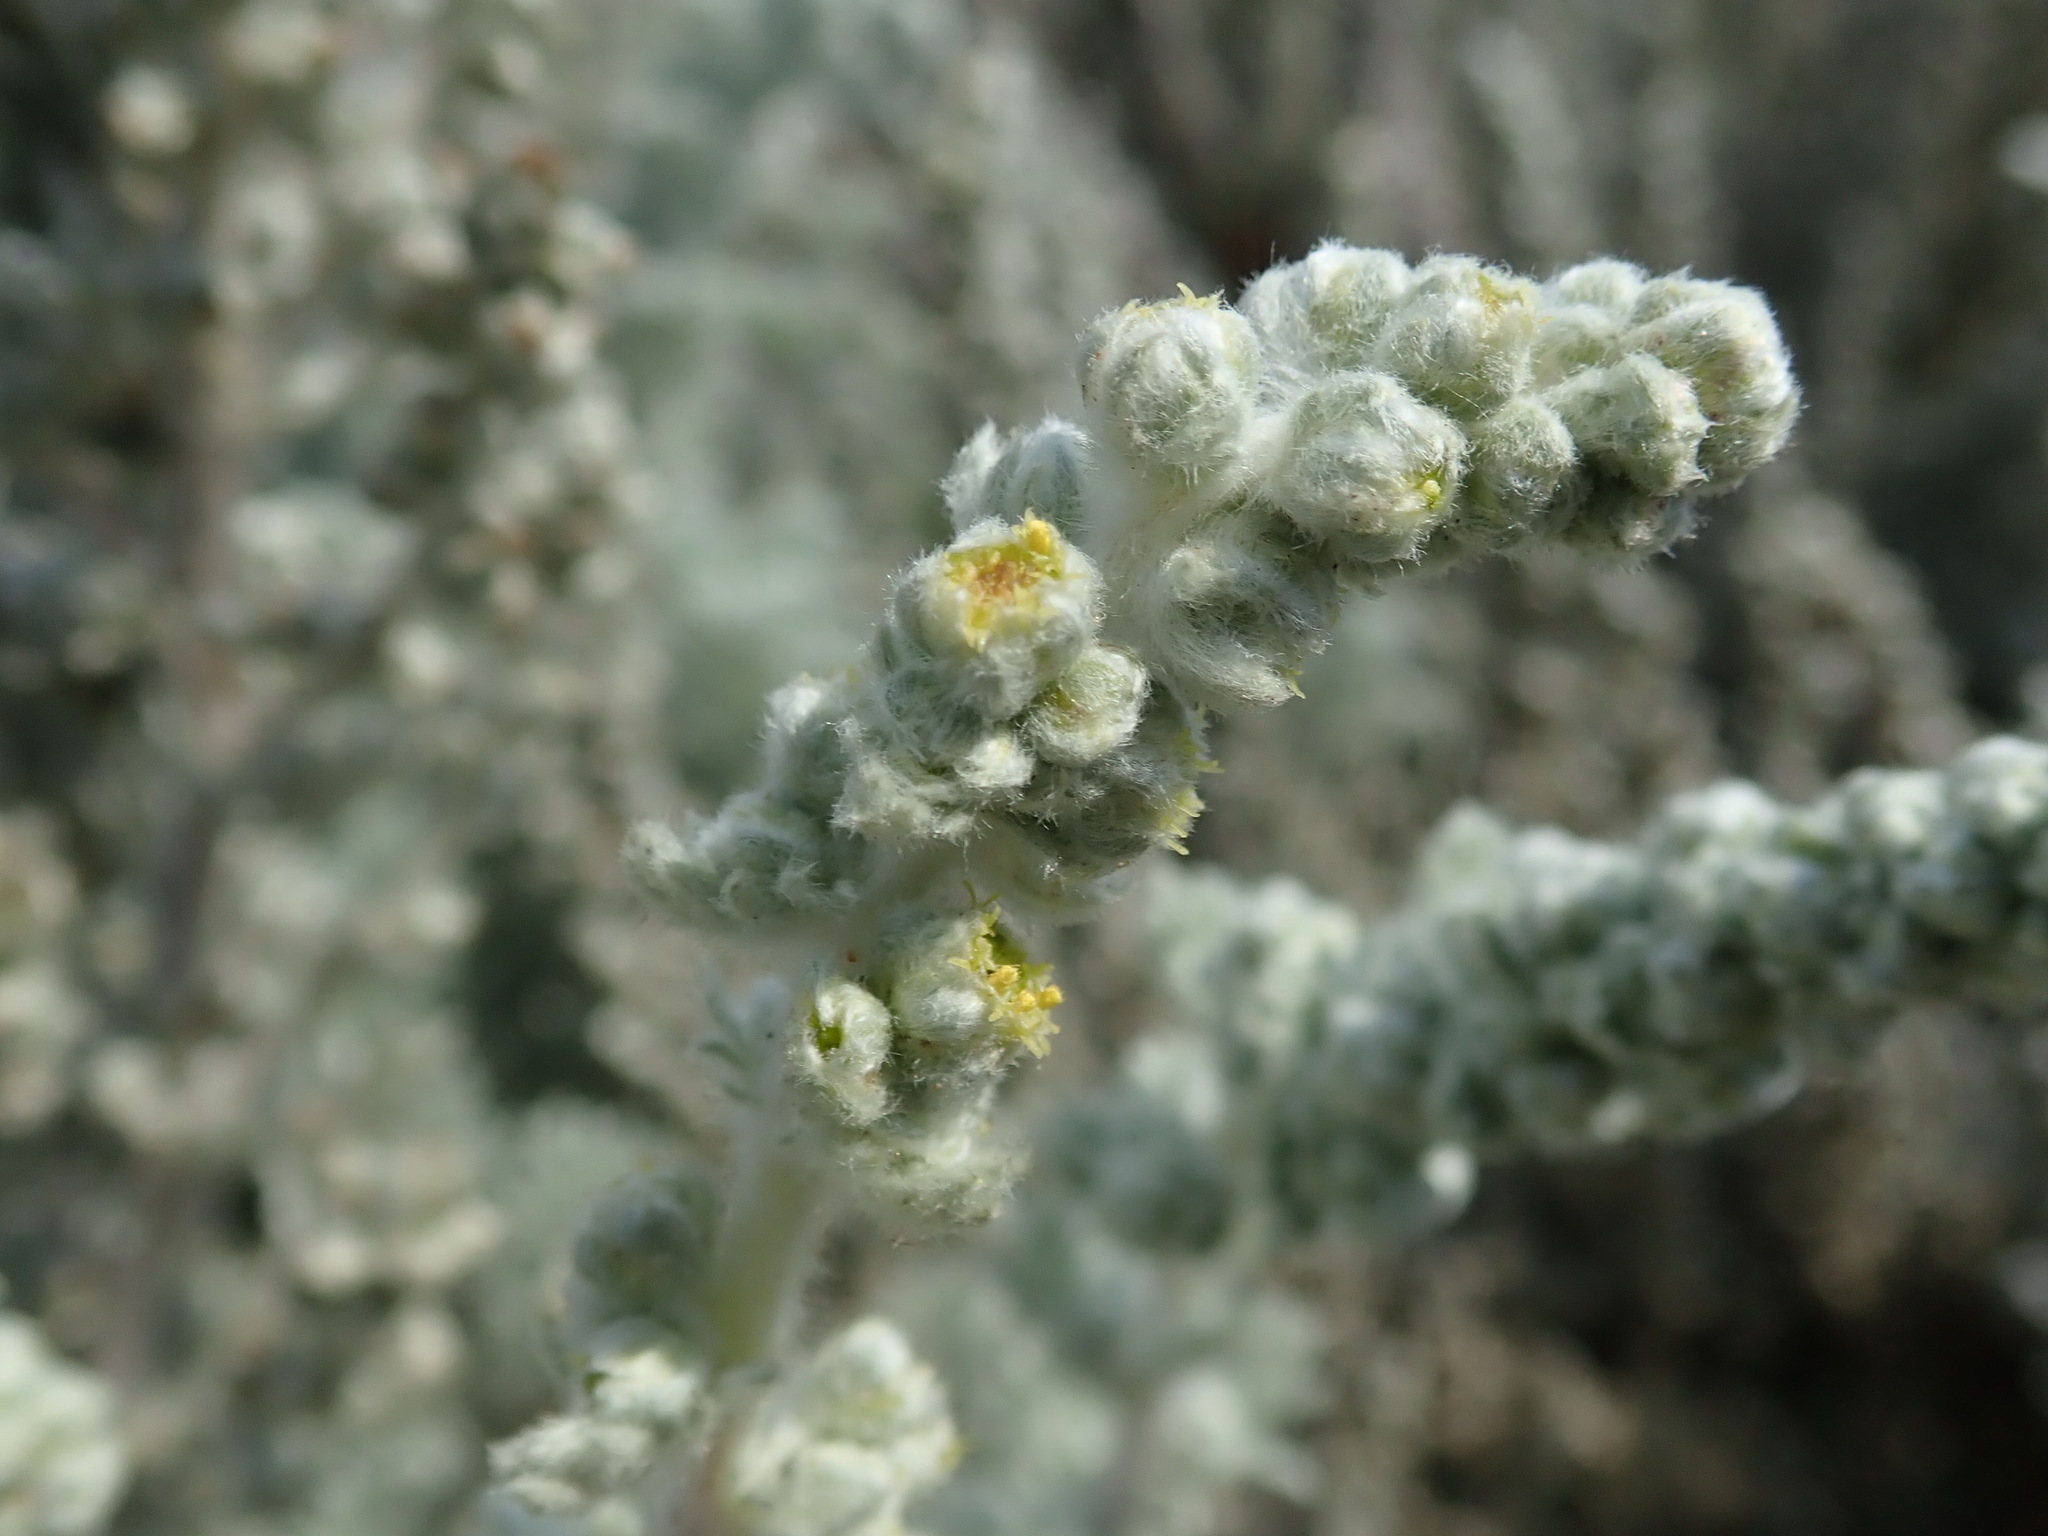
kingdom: Plantae
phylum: Tracheophyta
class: Magnoliopsida
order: Asterales
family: Asteraceae
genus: Artemisia
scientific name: Artemisia pycnocephala
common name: Coastal sagewort
